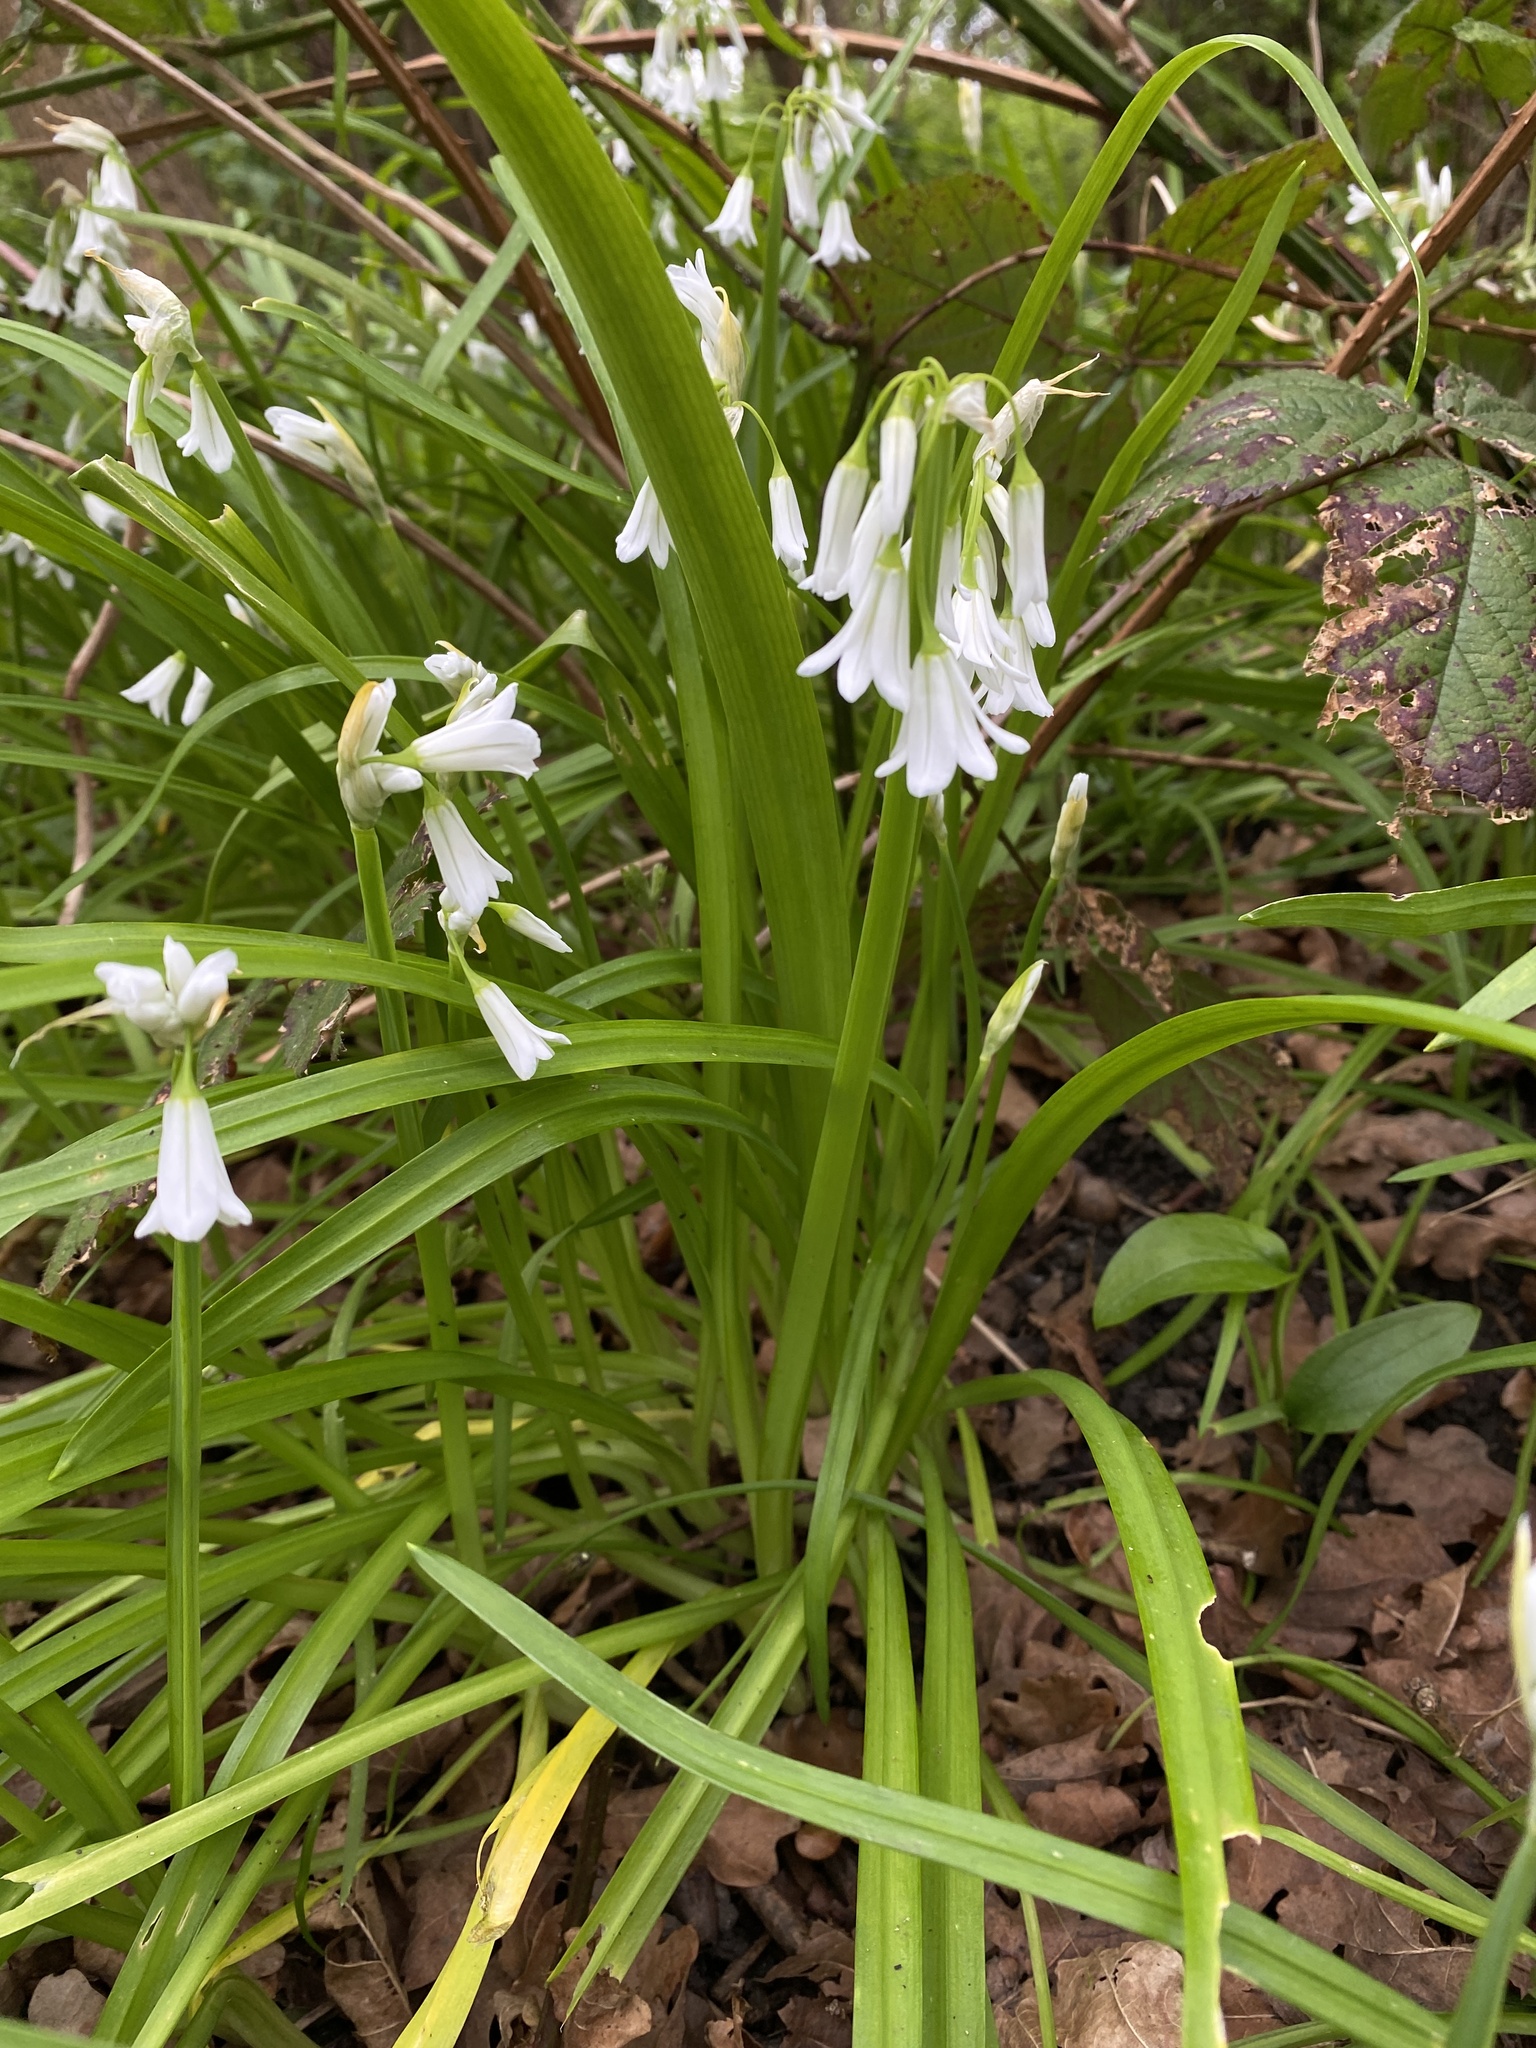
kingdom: Plantae
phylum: Tracheophyta
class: Liliopsida
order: Asparagales
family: Amaryllidaceae
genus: Allium
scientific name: Allium triquetrum
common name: Three-cornered garlic
